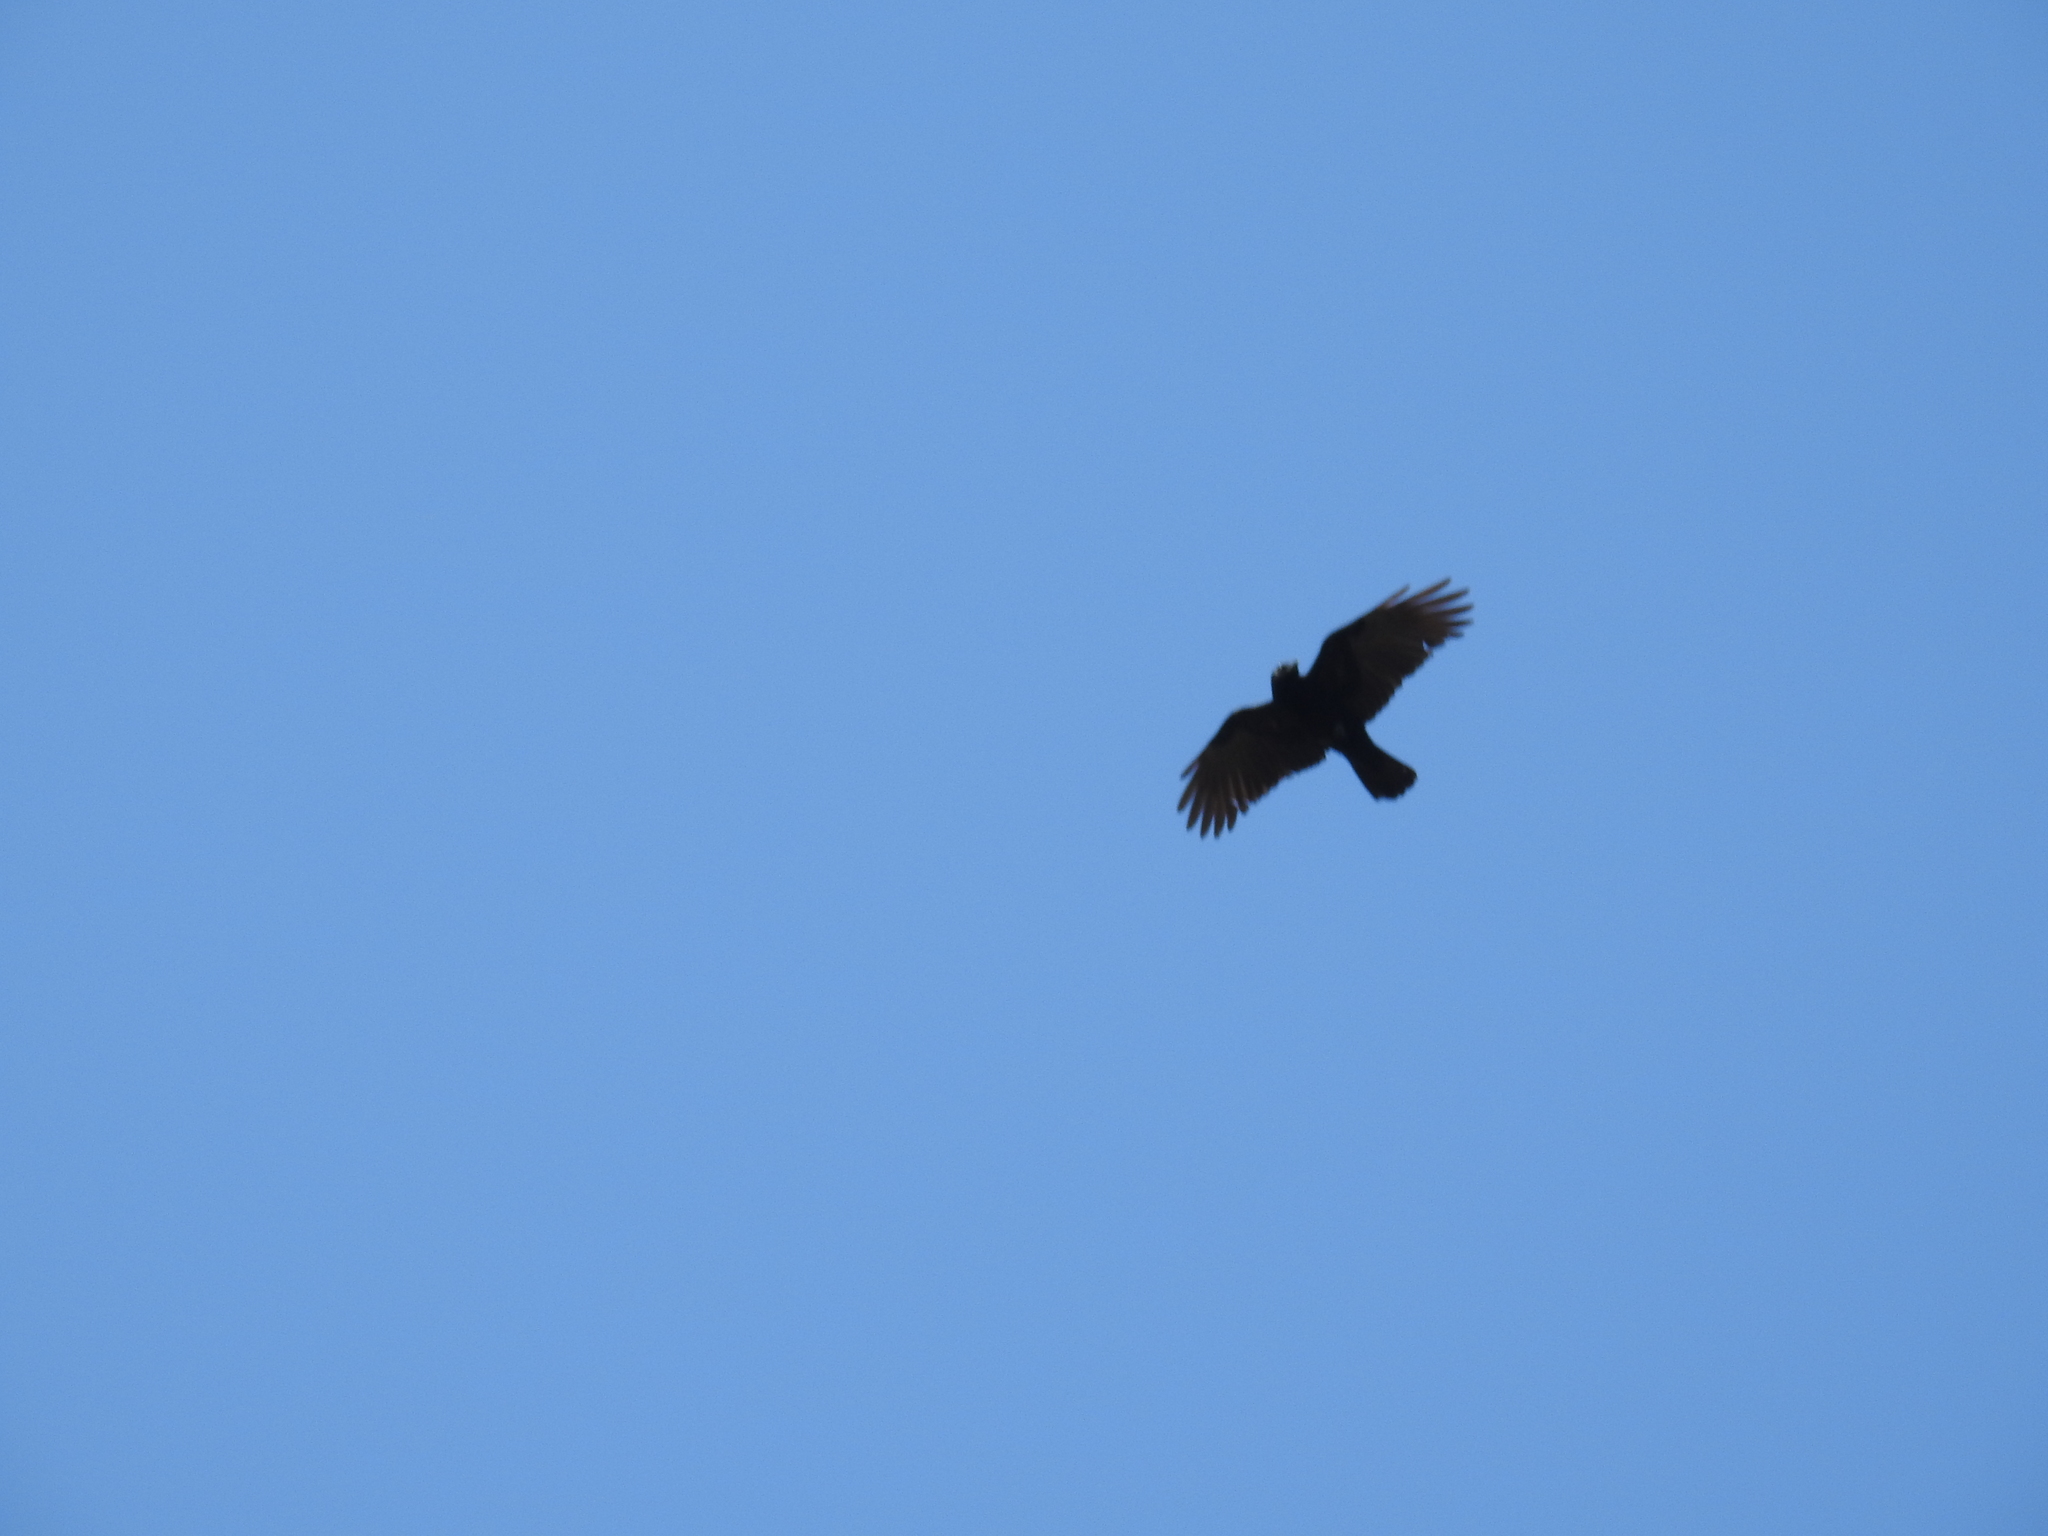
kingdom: Animalia
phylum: Chordata
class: Aves
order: Passeriformes
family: Corvidae
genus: Corvus
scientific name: Corvus brachyrhynchos
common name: American crow
